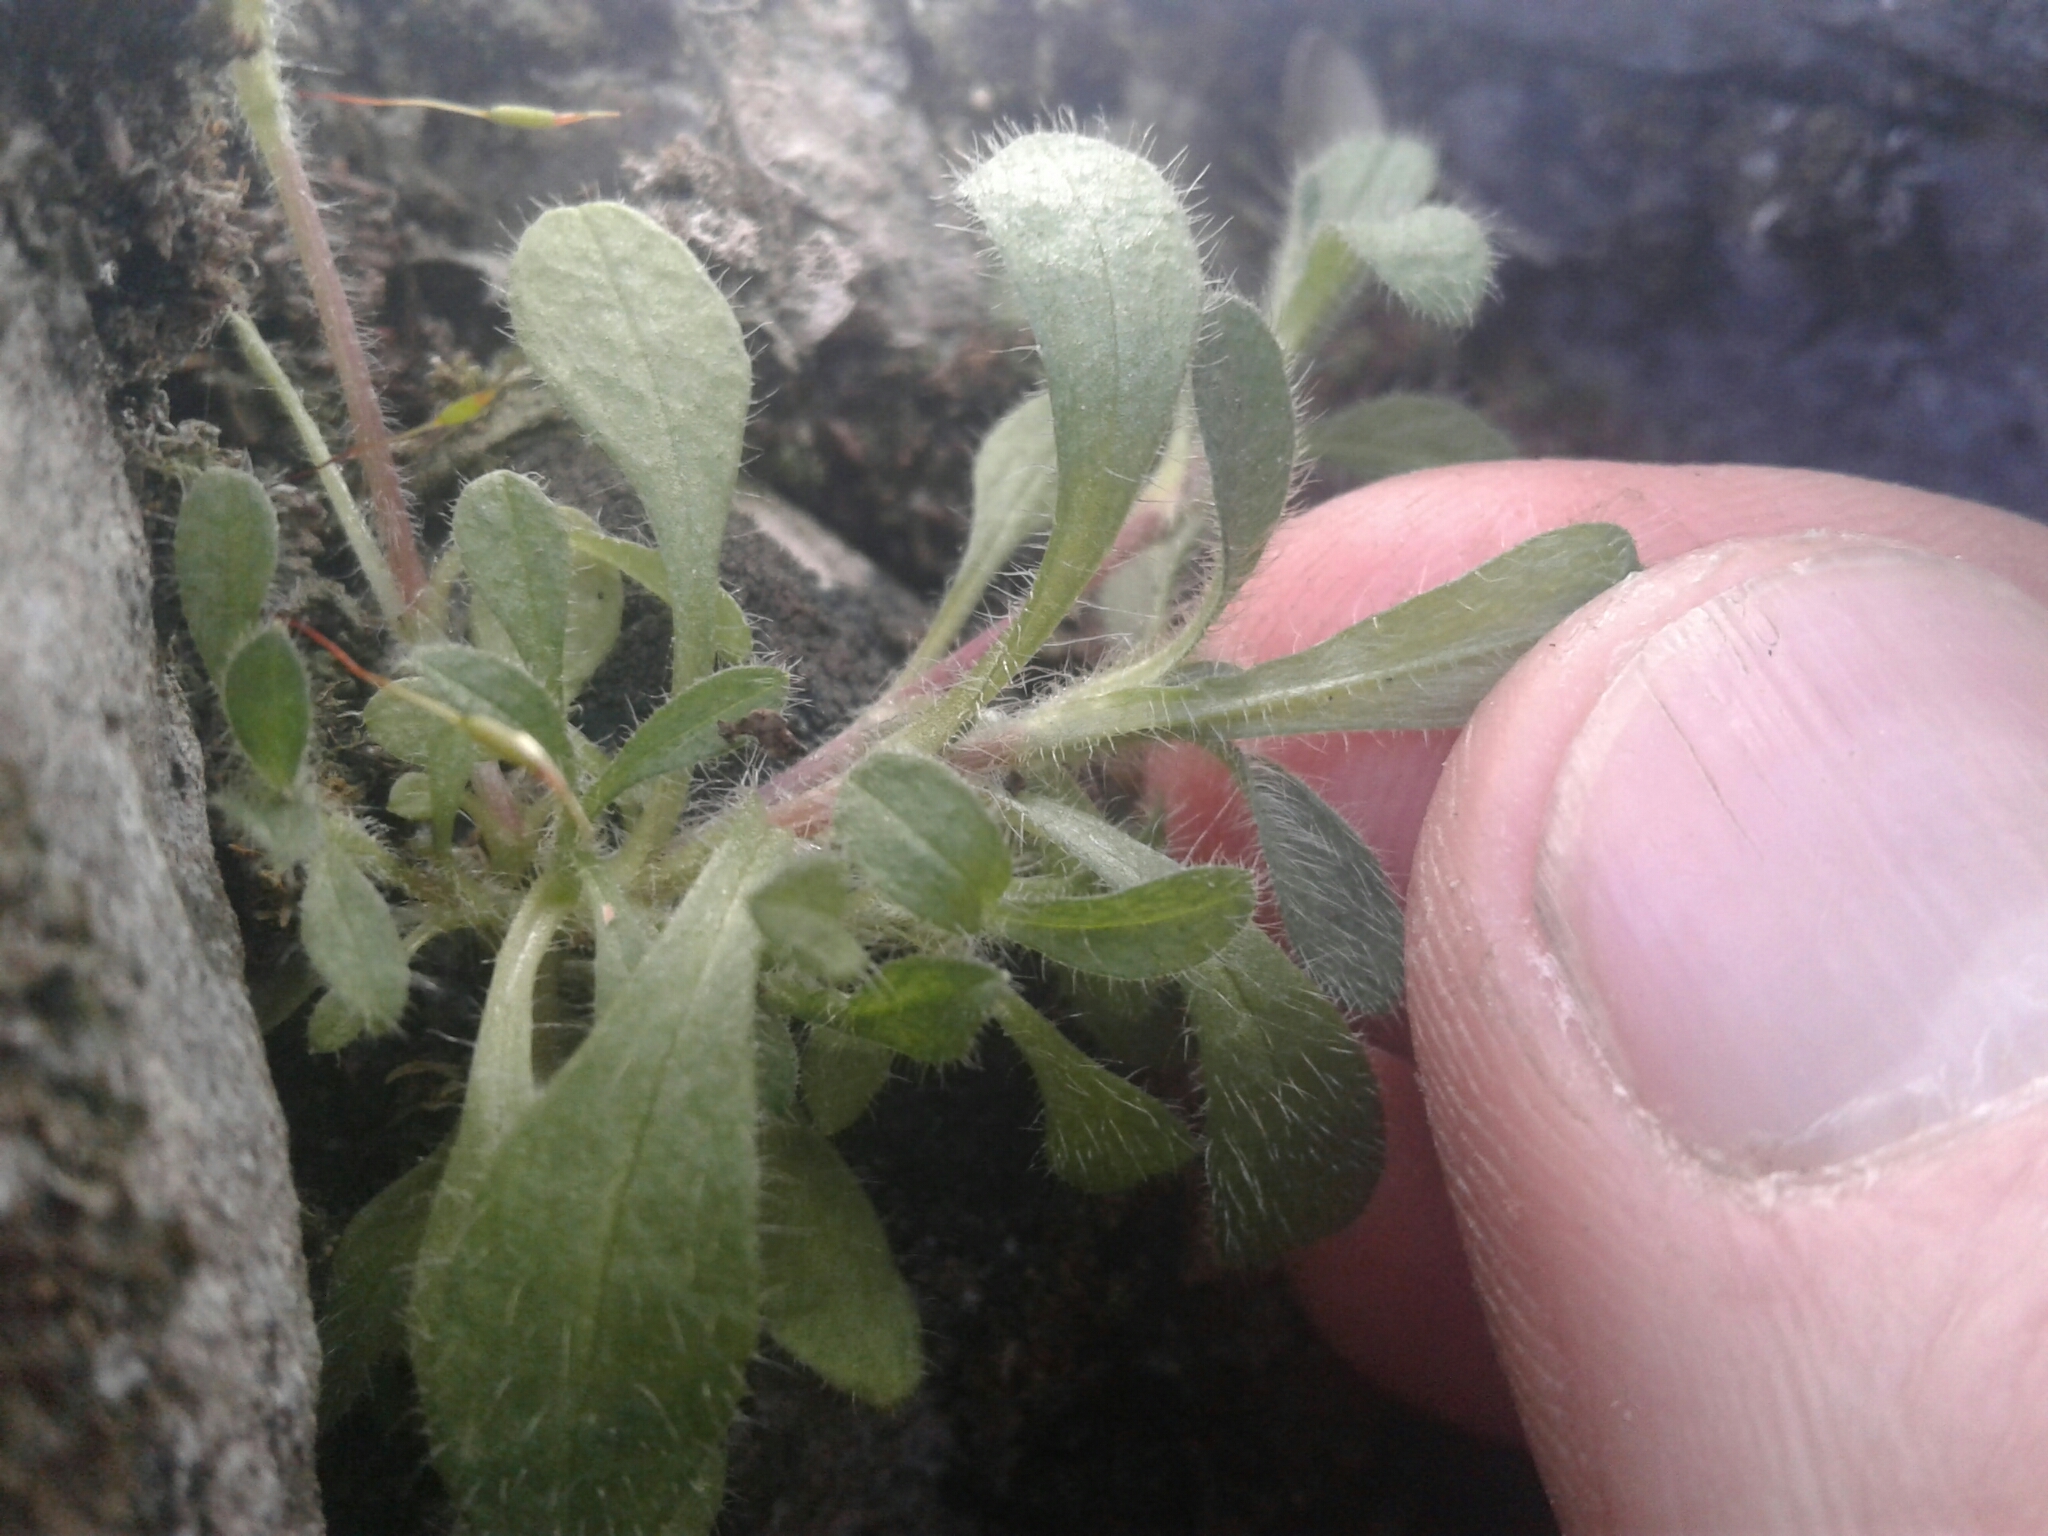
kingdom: Plantae
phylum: Tracheophyta
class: Magnoliopsida
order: Caryophyllales
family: Caryophyllaceae
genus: Cerastium
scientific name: Cerastium fontanum
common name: Common mouse-ear
